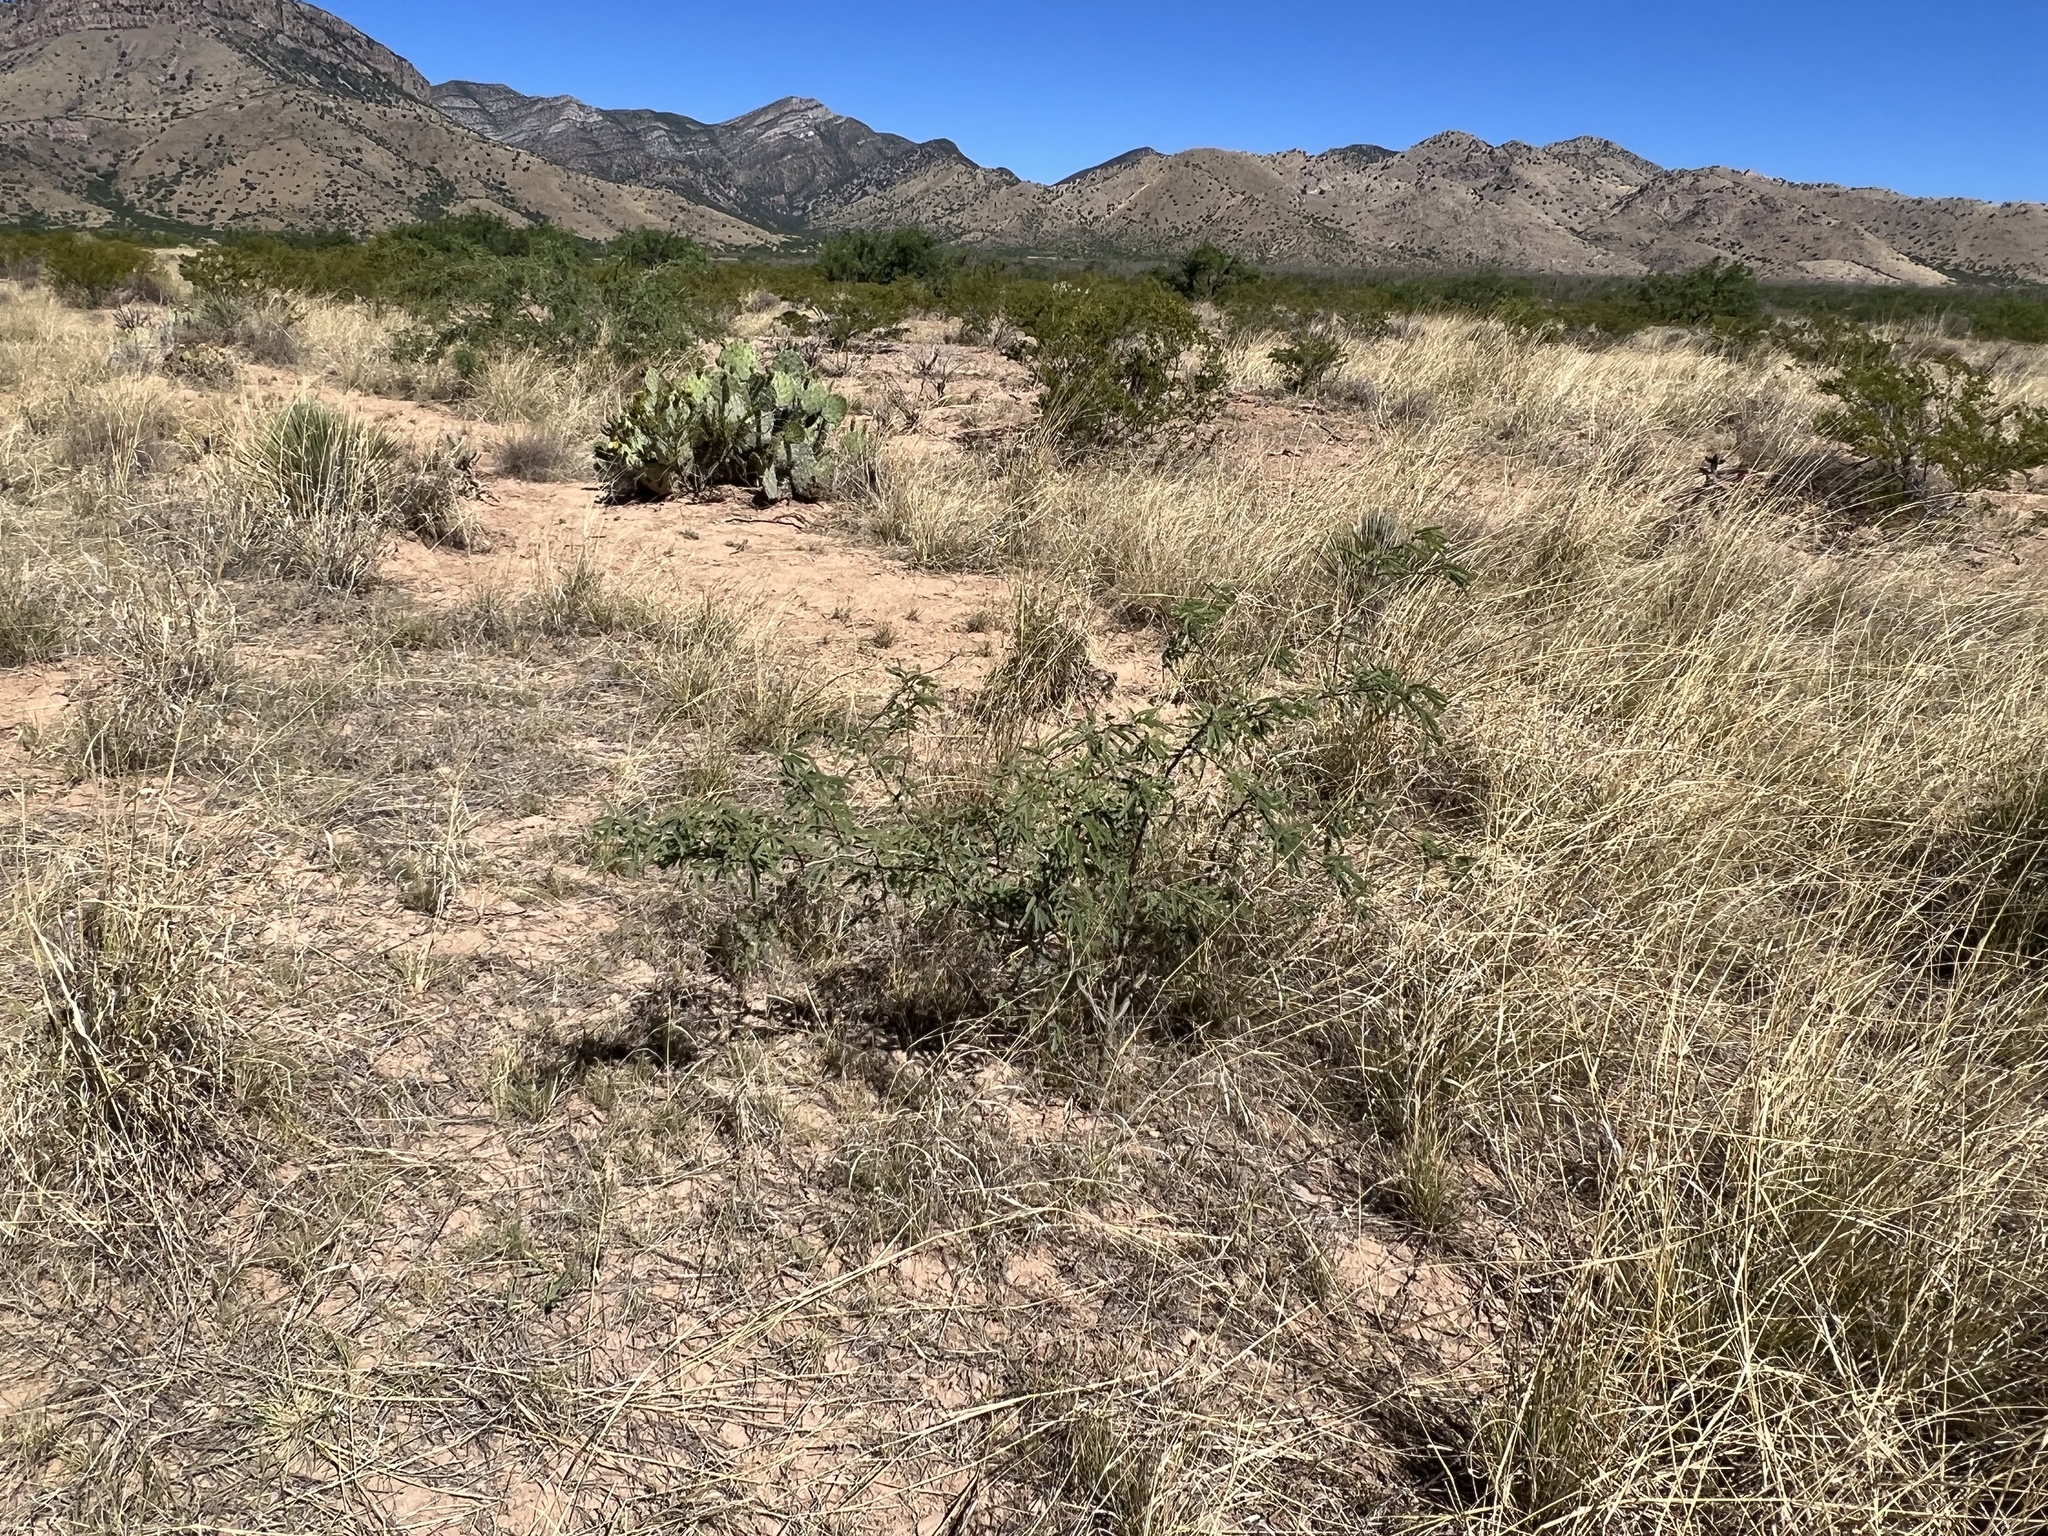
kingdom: Plantae
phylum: Tracheophyta
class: Magnoliopsida
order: Fabales
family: Fabaceae
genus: Prosopis
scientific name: Prosopis velutina
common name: Velvet mesquite
